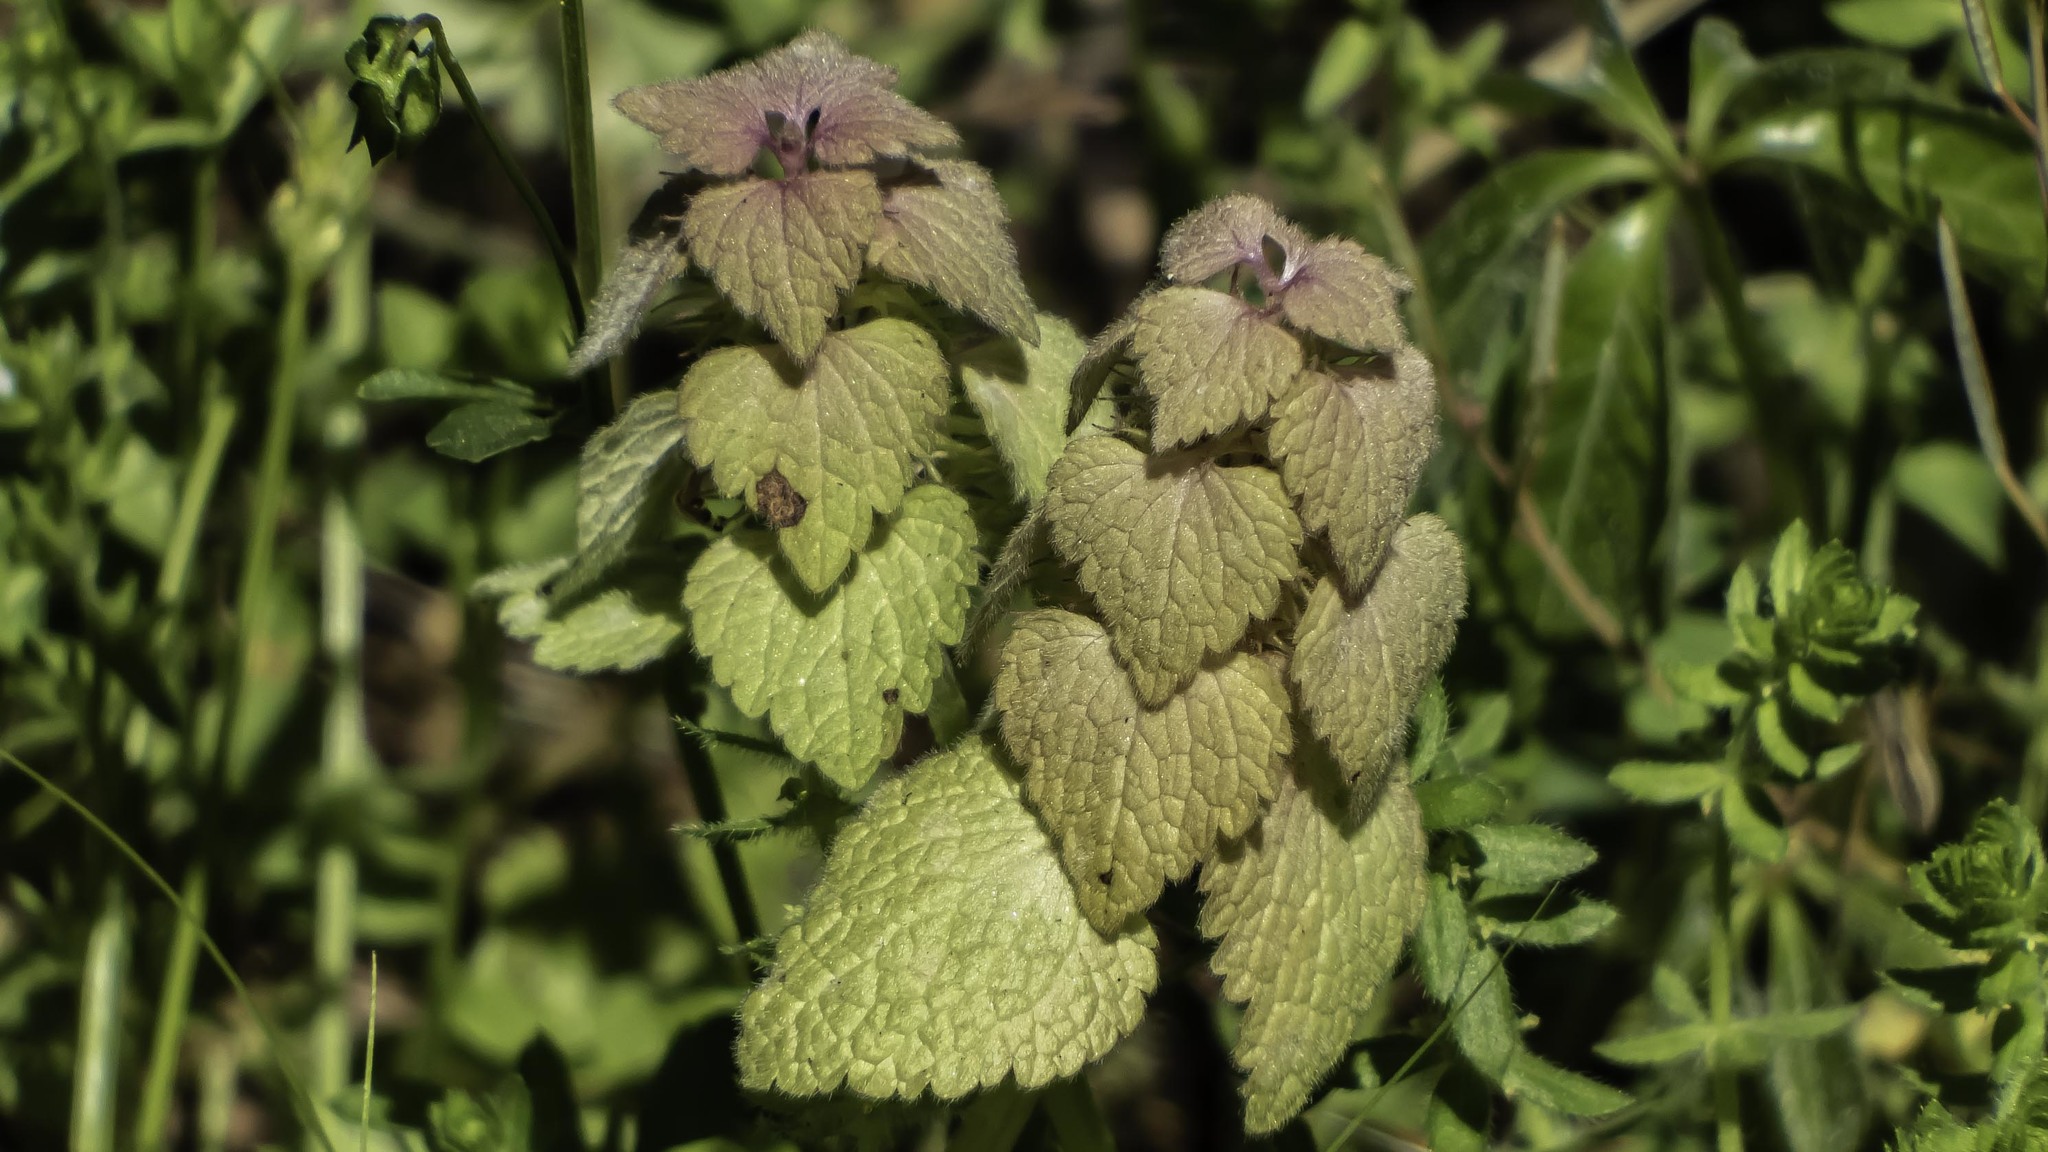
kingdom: Plantae
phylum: Tracheophyta
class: Magnoliopsida
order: Lamiales
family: Lamiaceae
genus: Lamium
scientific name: Lamium purpureum
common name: Red dead-nettle
